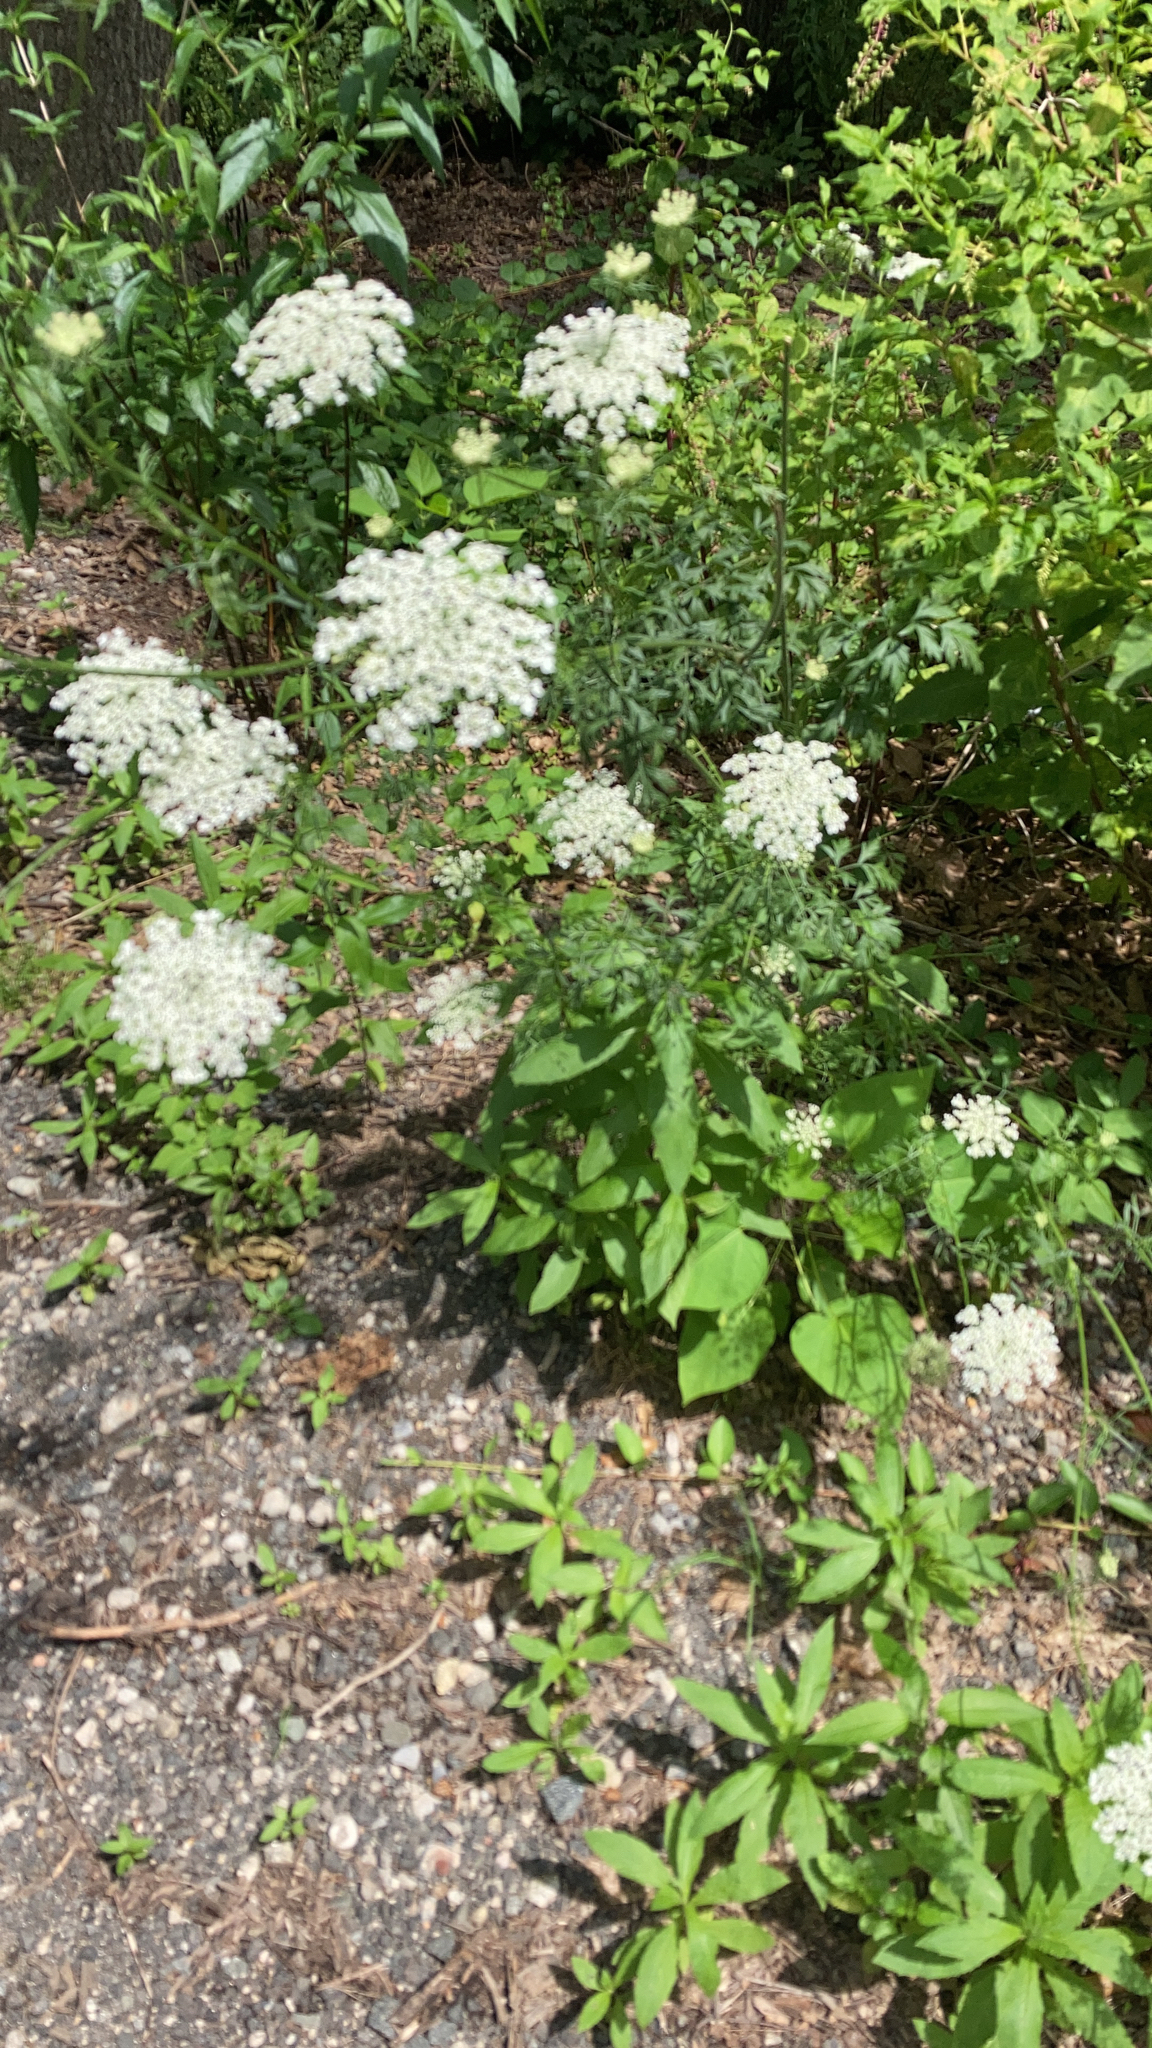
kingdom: Plantae
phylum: Tracheophyta
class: Magnoliopsida
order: Apiales
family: Apiaceae
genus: Daucus
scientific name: Daucus carota
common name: Wild carrot
